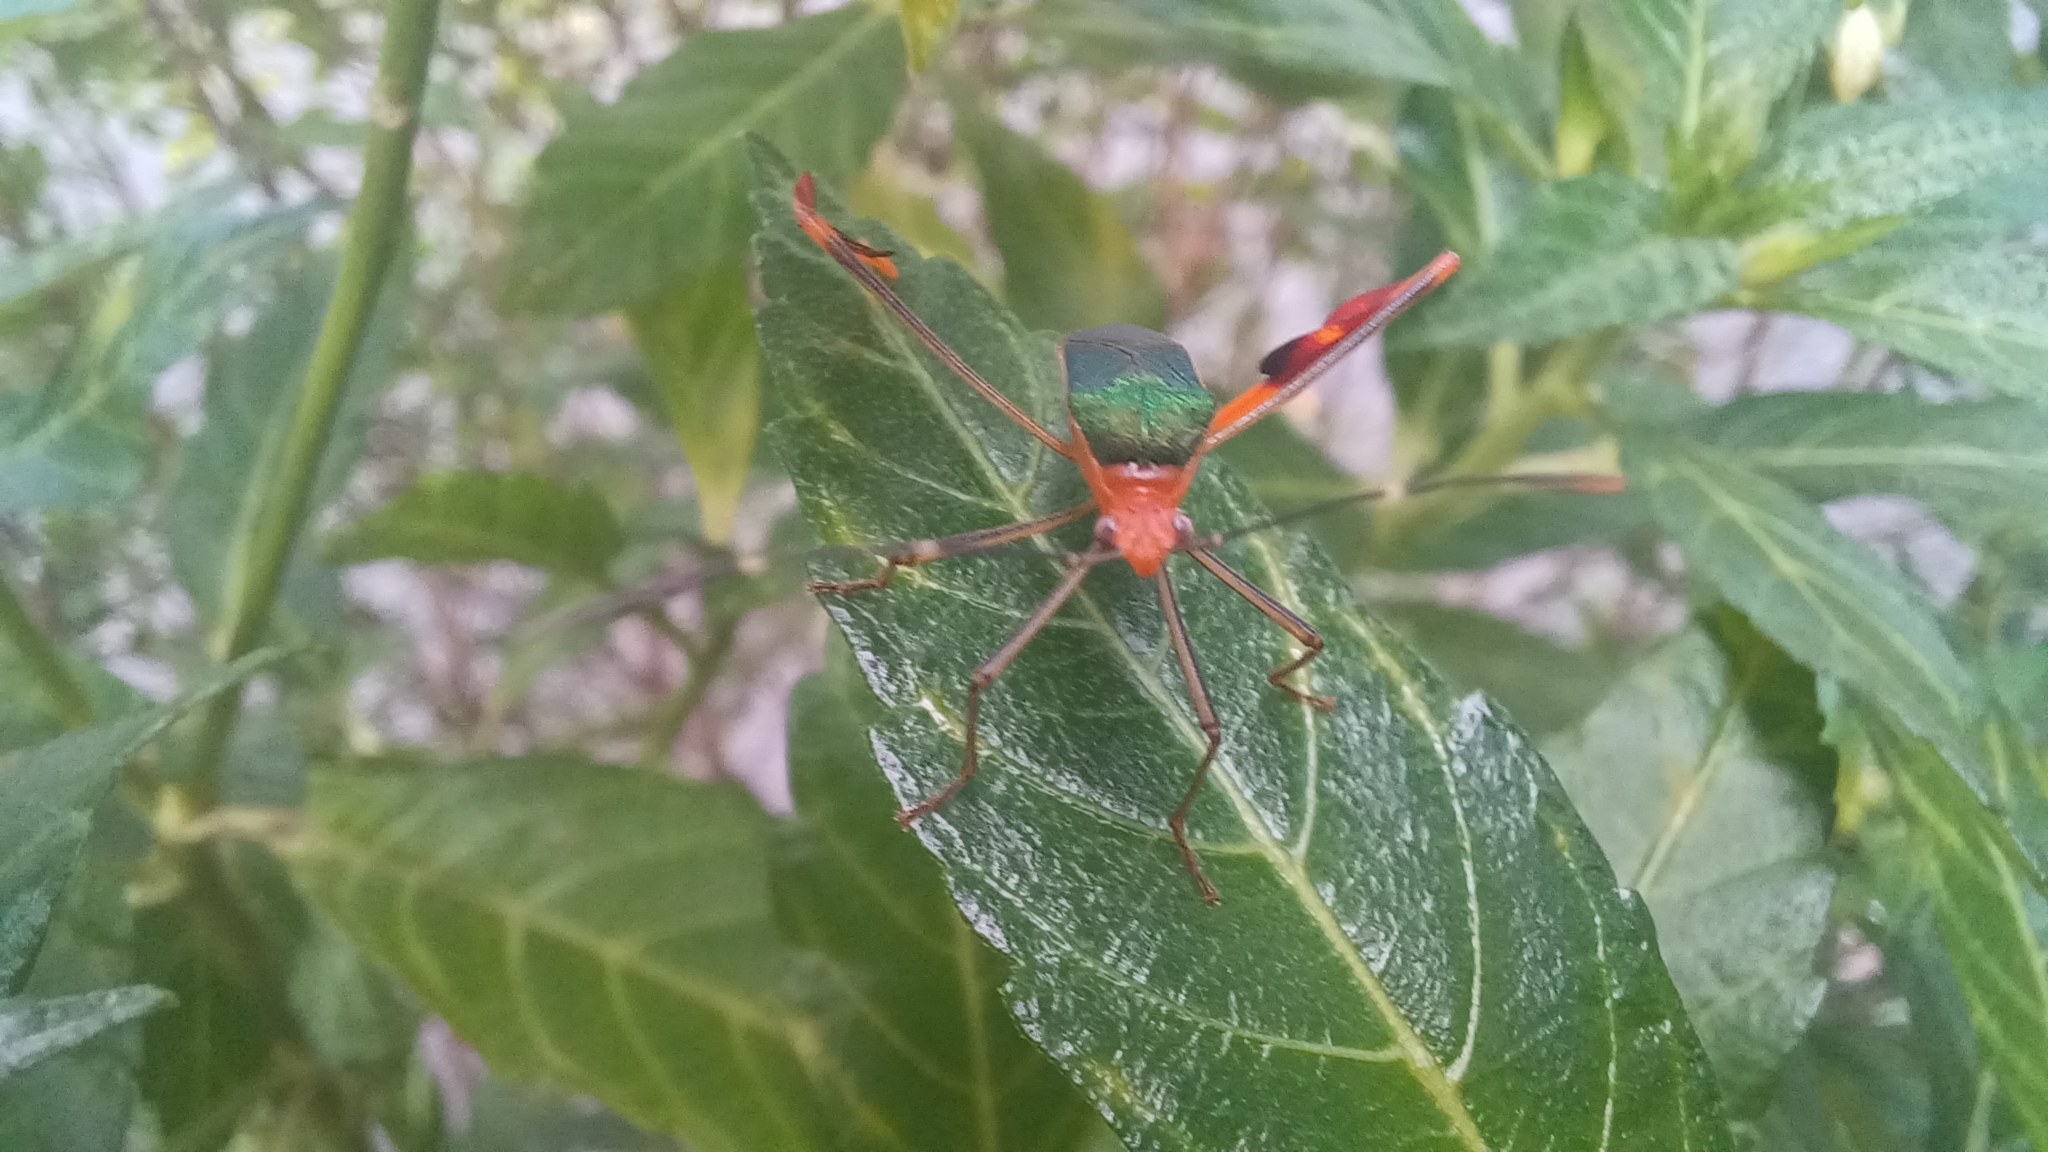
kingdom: Animalia
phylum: Arthropoda
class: Insecta
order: Hemiptera
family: Coreidae
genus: Anisoscelis
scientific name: Anisoscelis foliaceus
